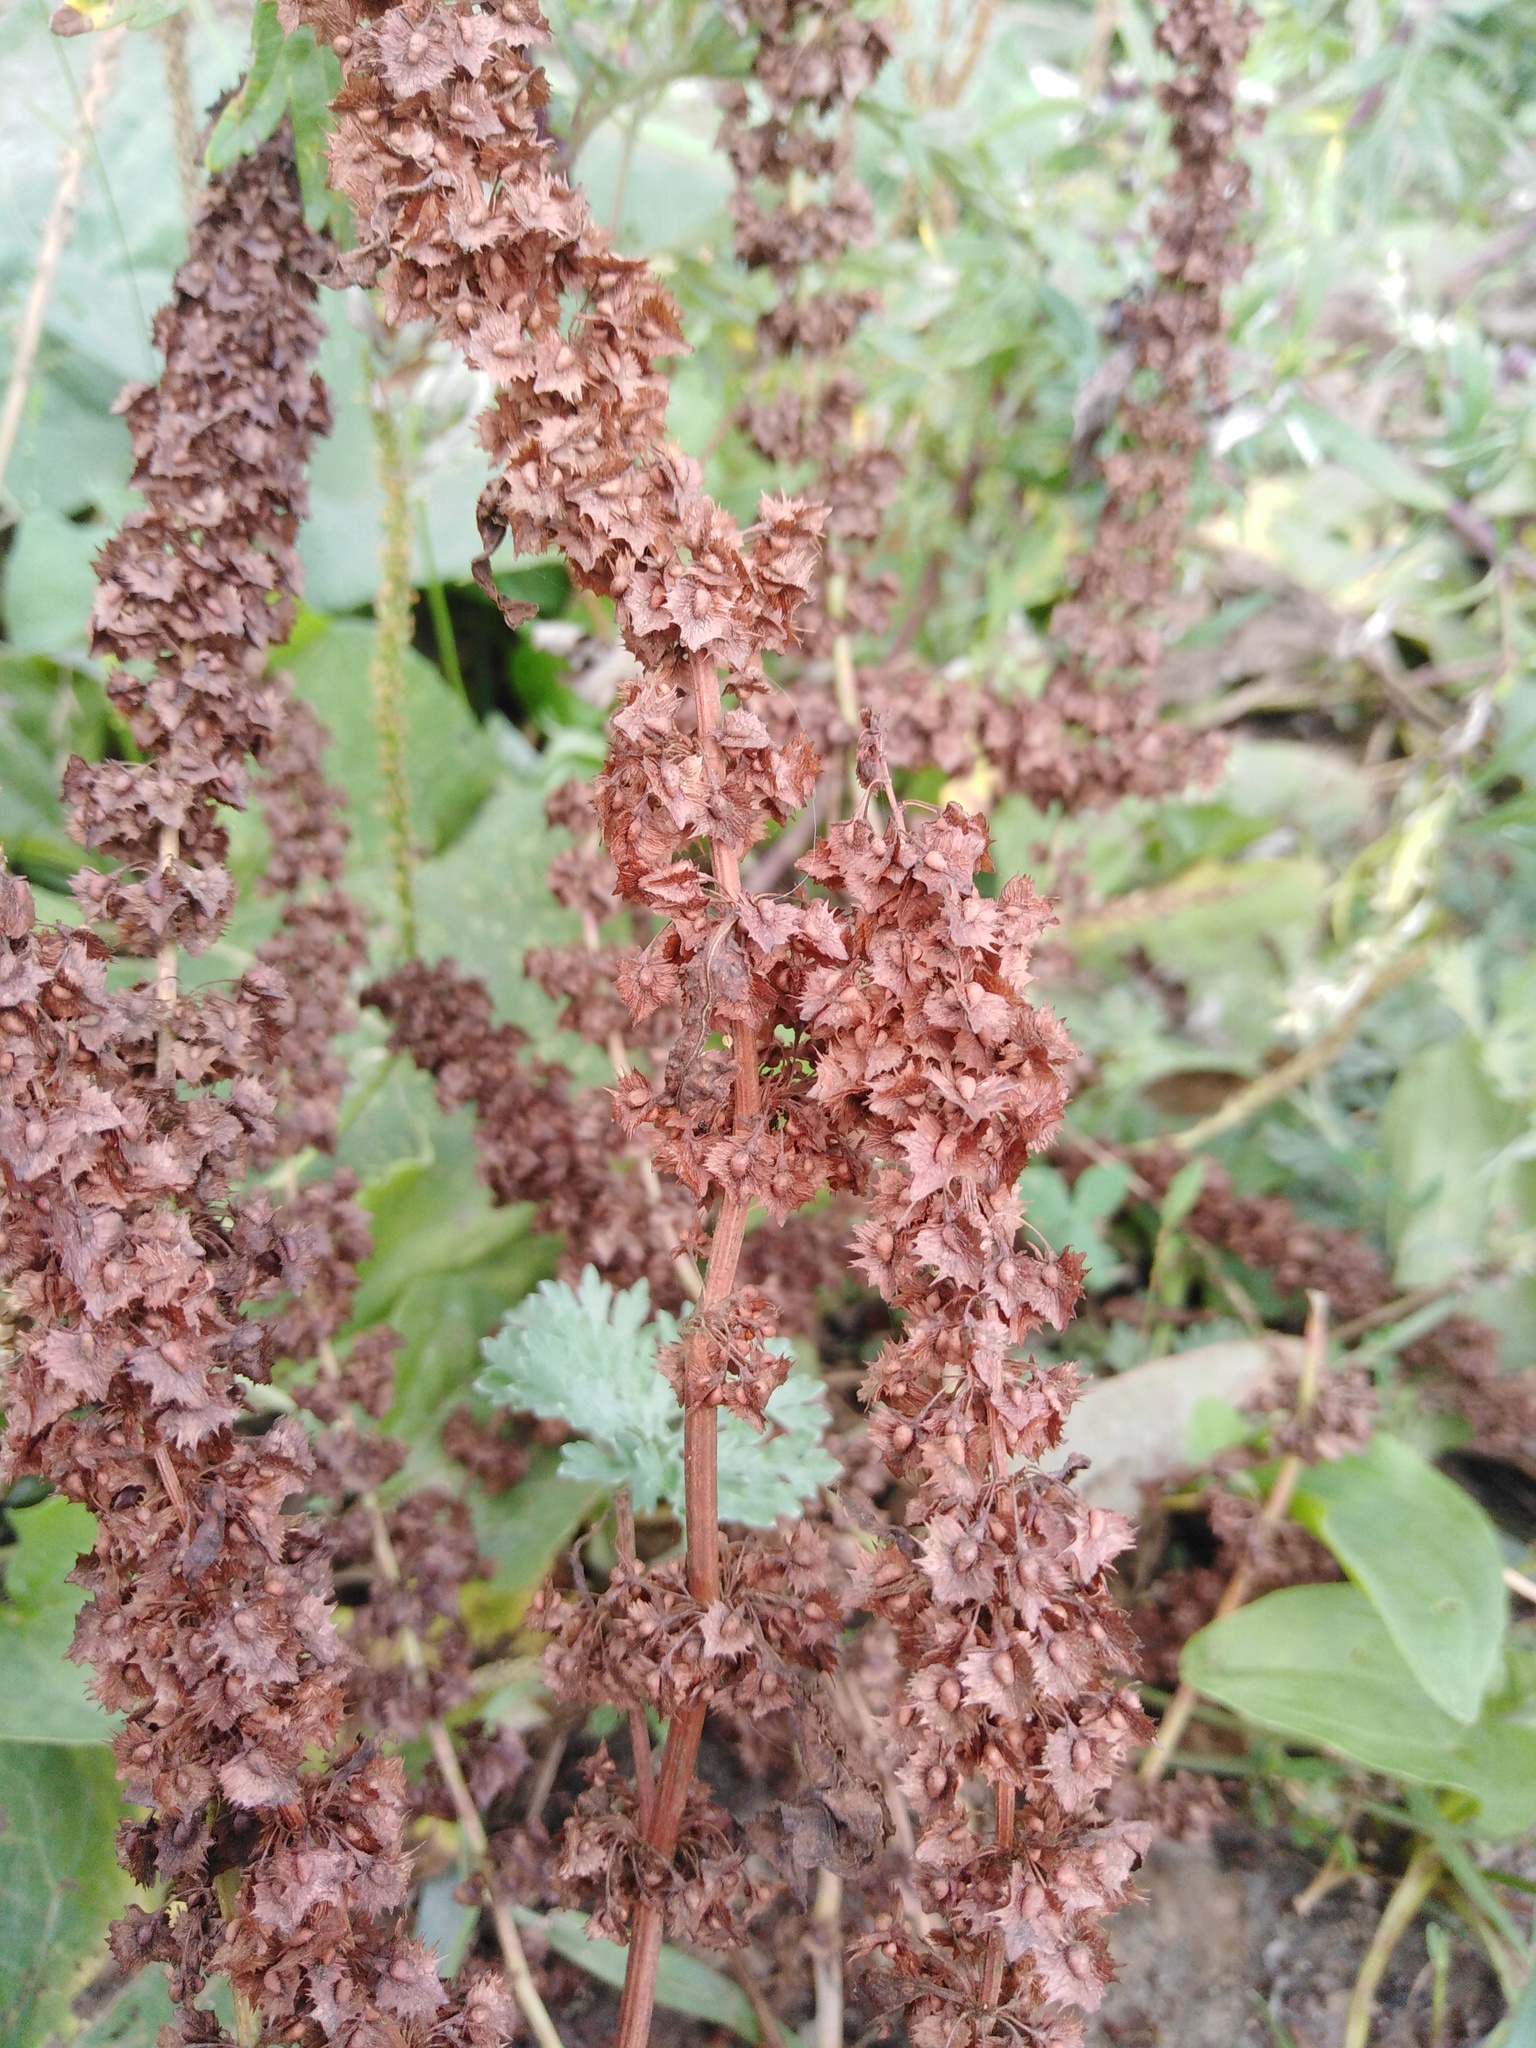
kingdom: Plantae
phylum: Tracheophyta
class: Magnoliopsida
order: Caryophyllales
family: Polygonaceae
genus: Rumex
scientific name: Rumex stenophyllus
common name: Narrowleaf dock
